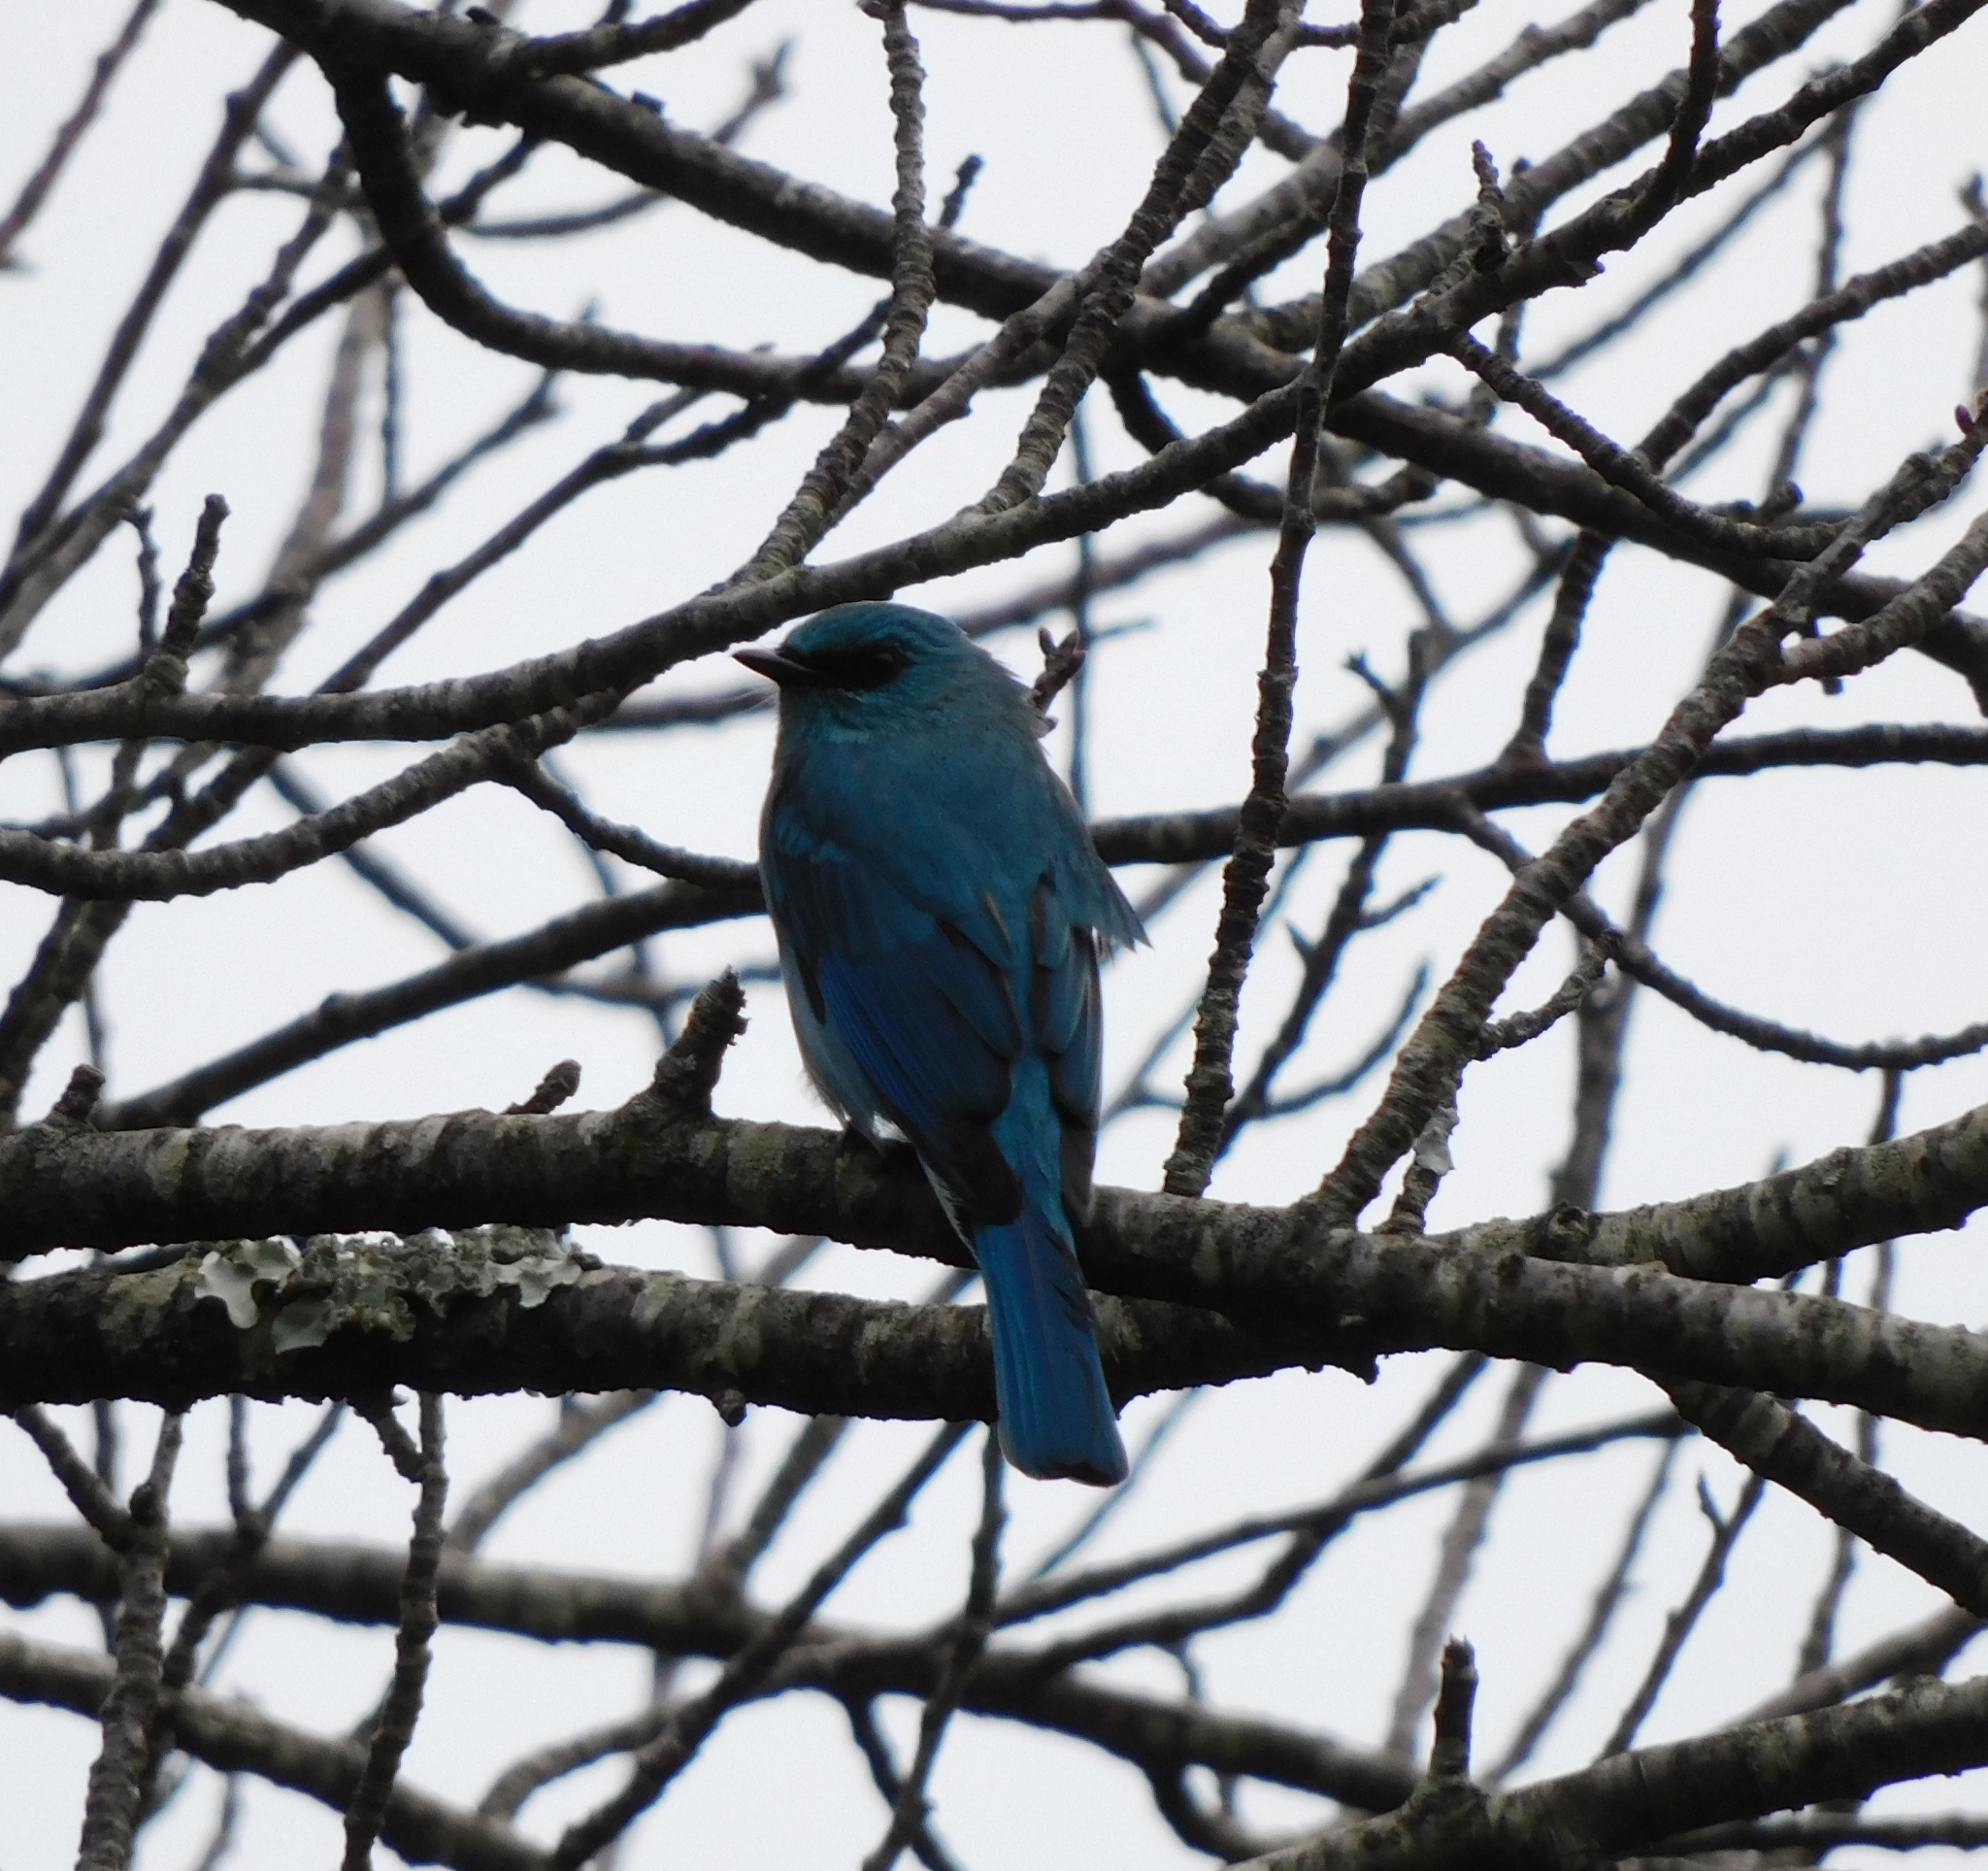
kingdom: Animalia
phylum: Chordata
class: Aves
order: Passeriformes
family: Muscicapidae
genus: Eumyias
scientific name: Eumyias thalassinus
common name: Verditer flycatcher
